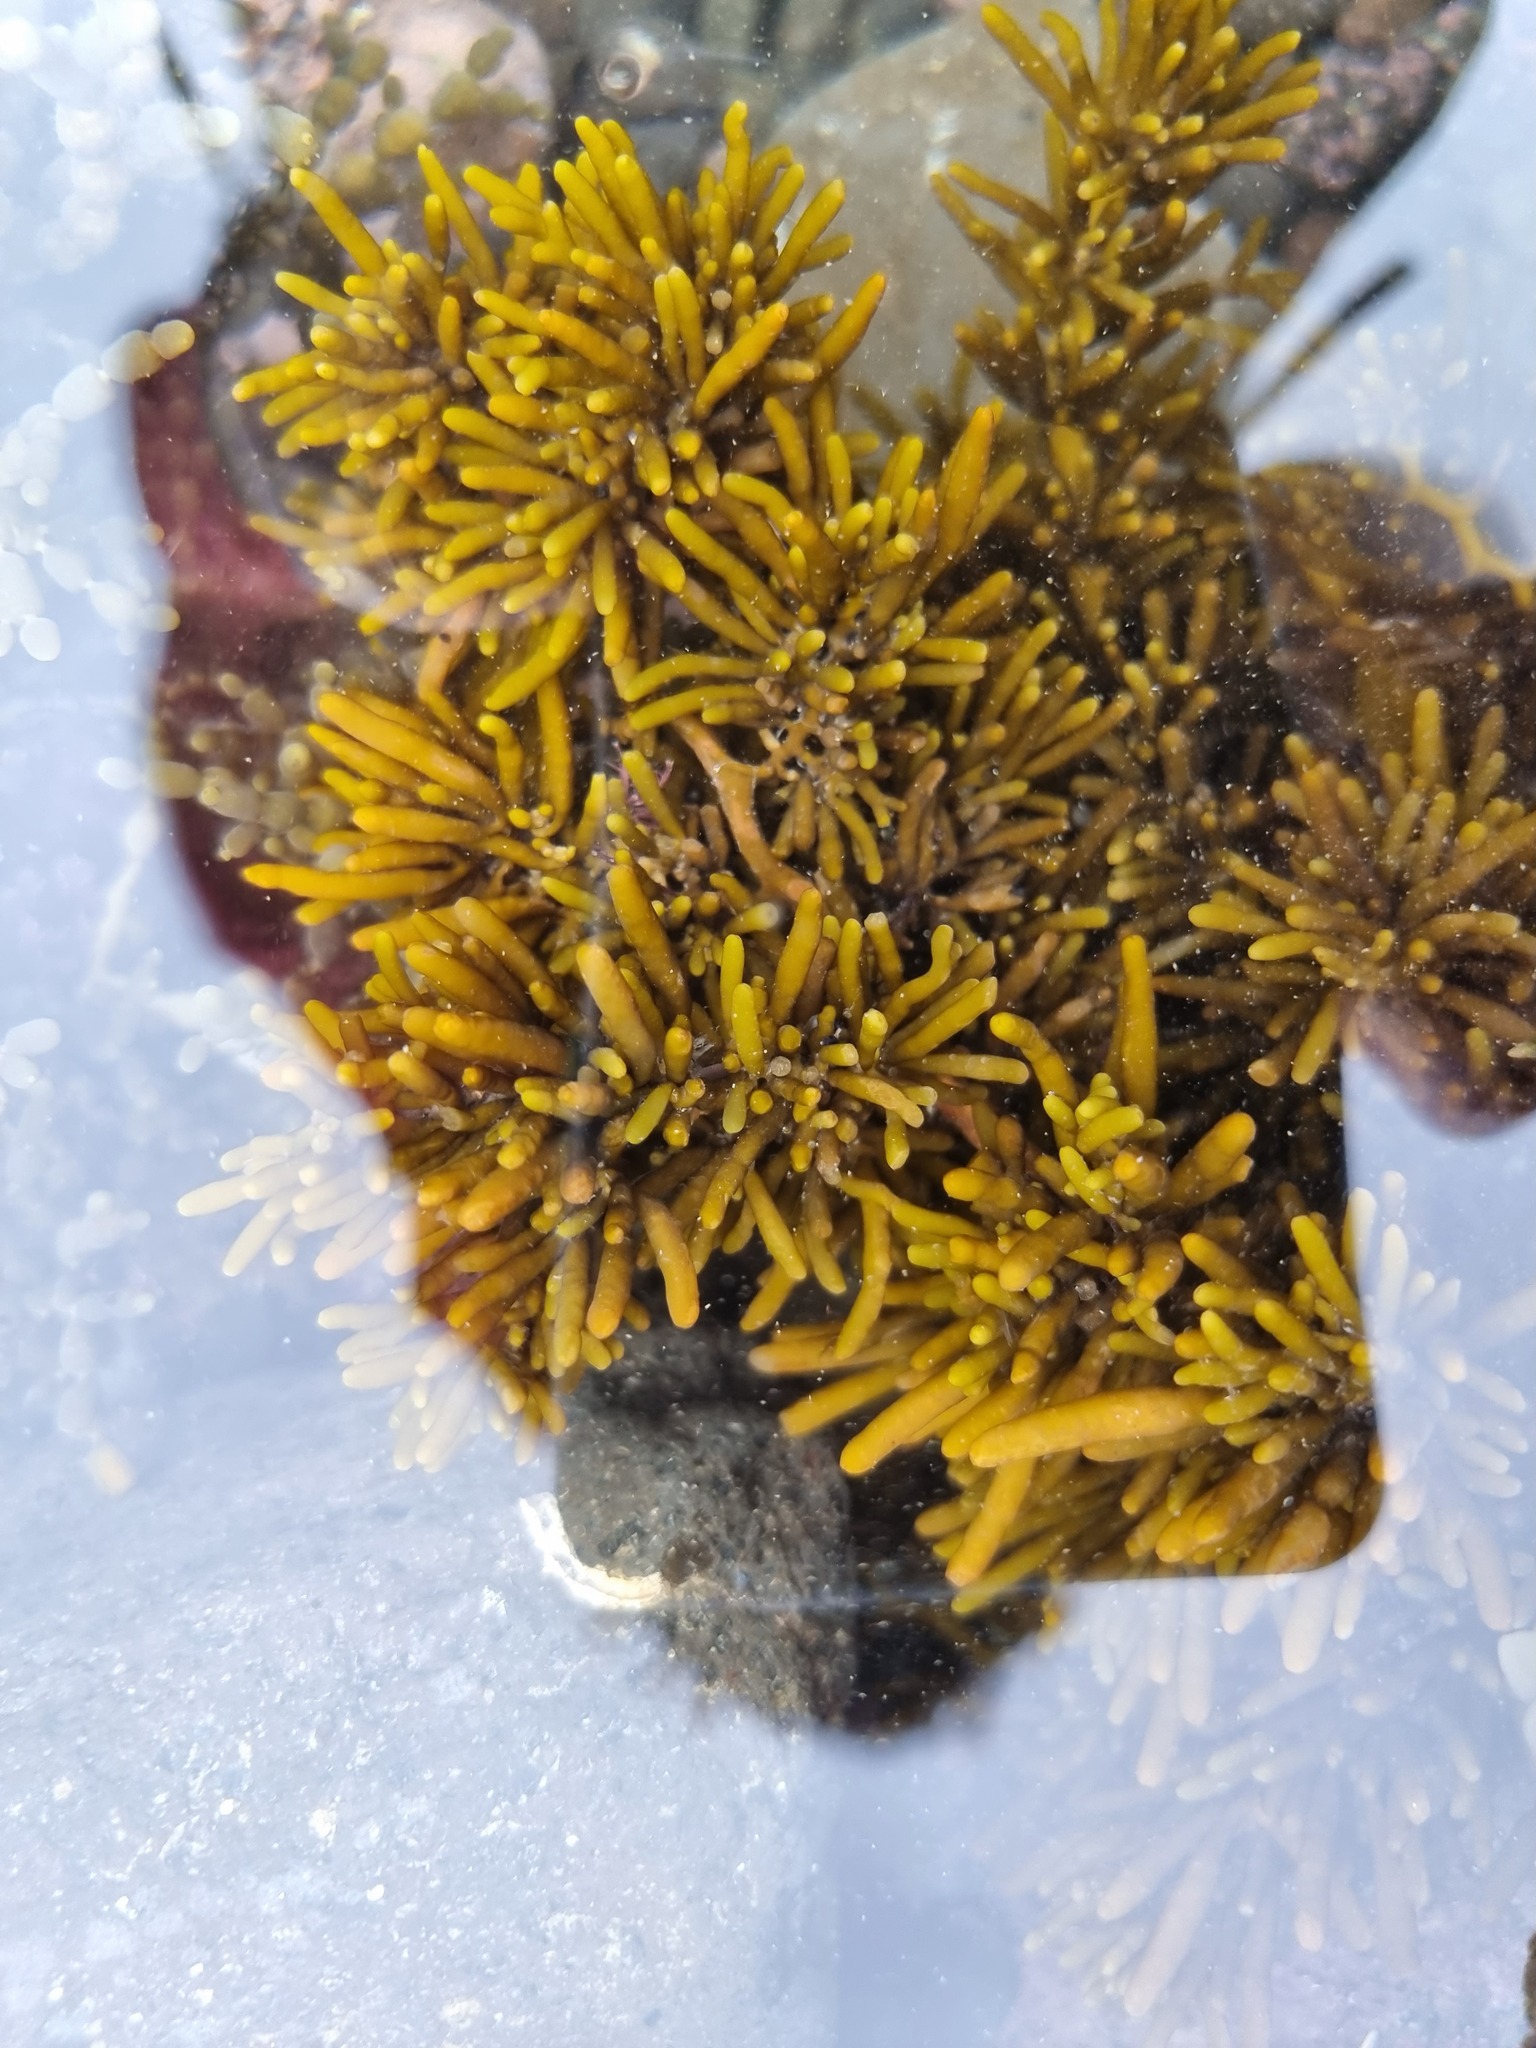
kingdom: Chromista
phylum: Ochrophyta
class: Phaeophyceae
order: Fucales
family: Sargassaceae
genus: Cystophora
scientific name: Cystophora torulosa
